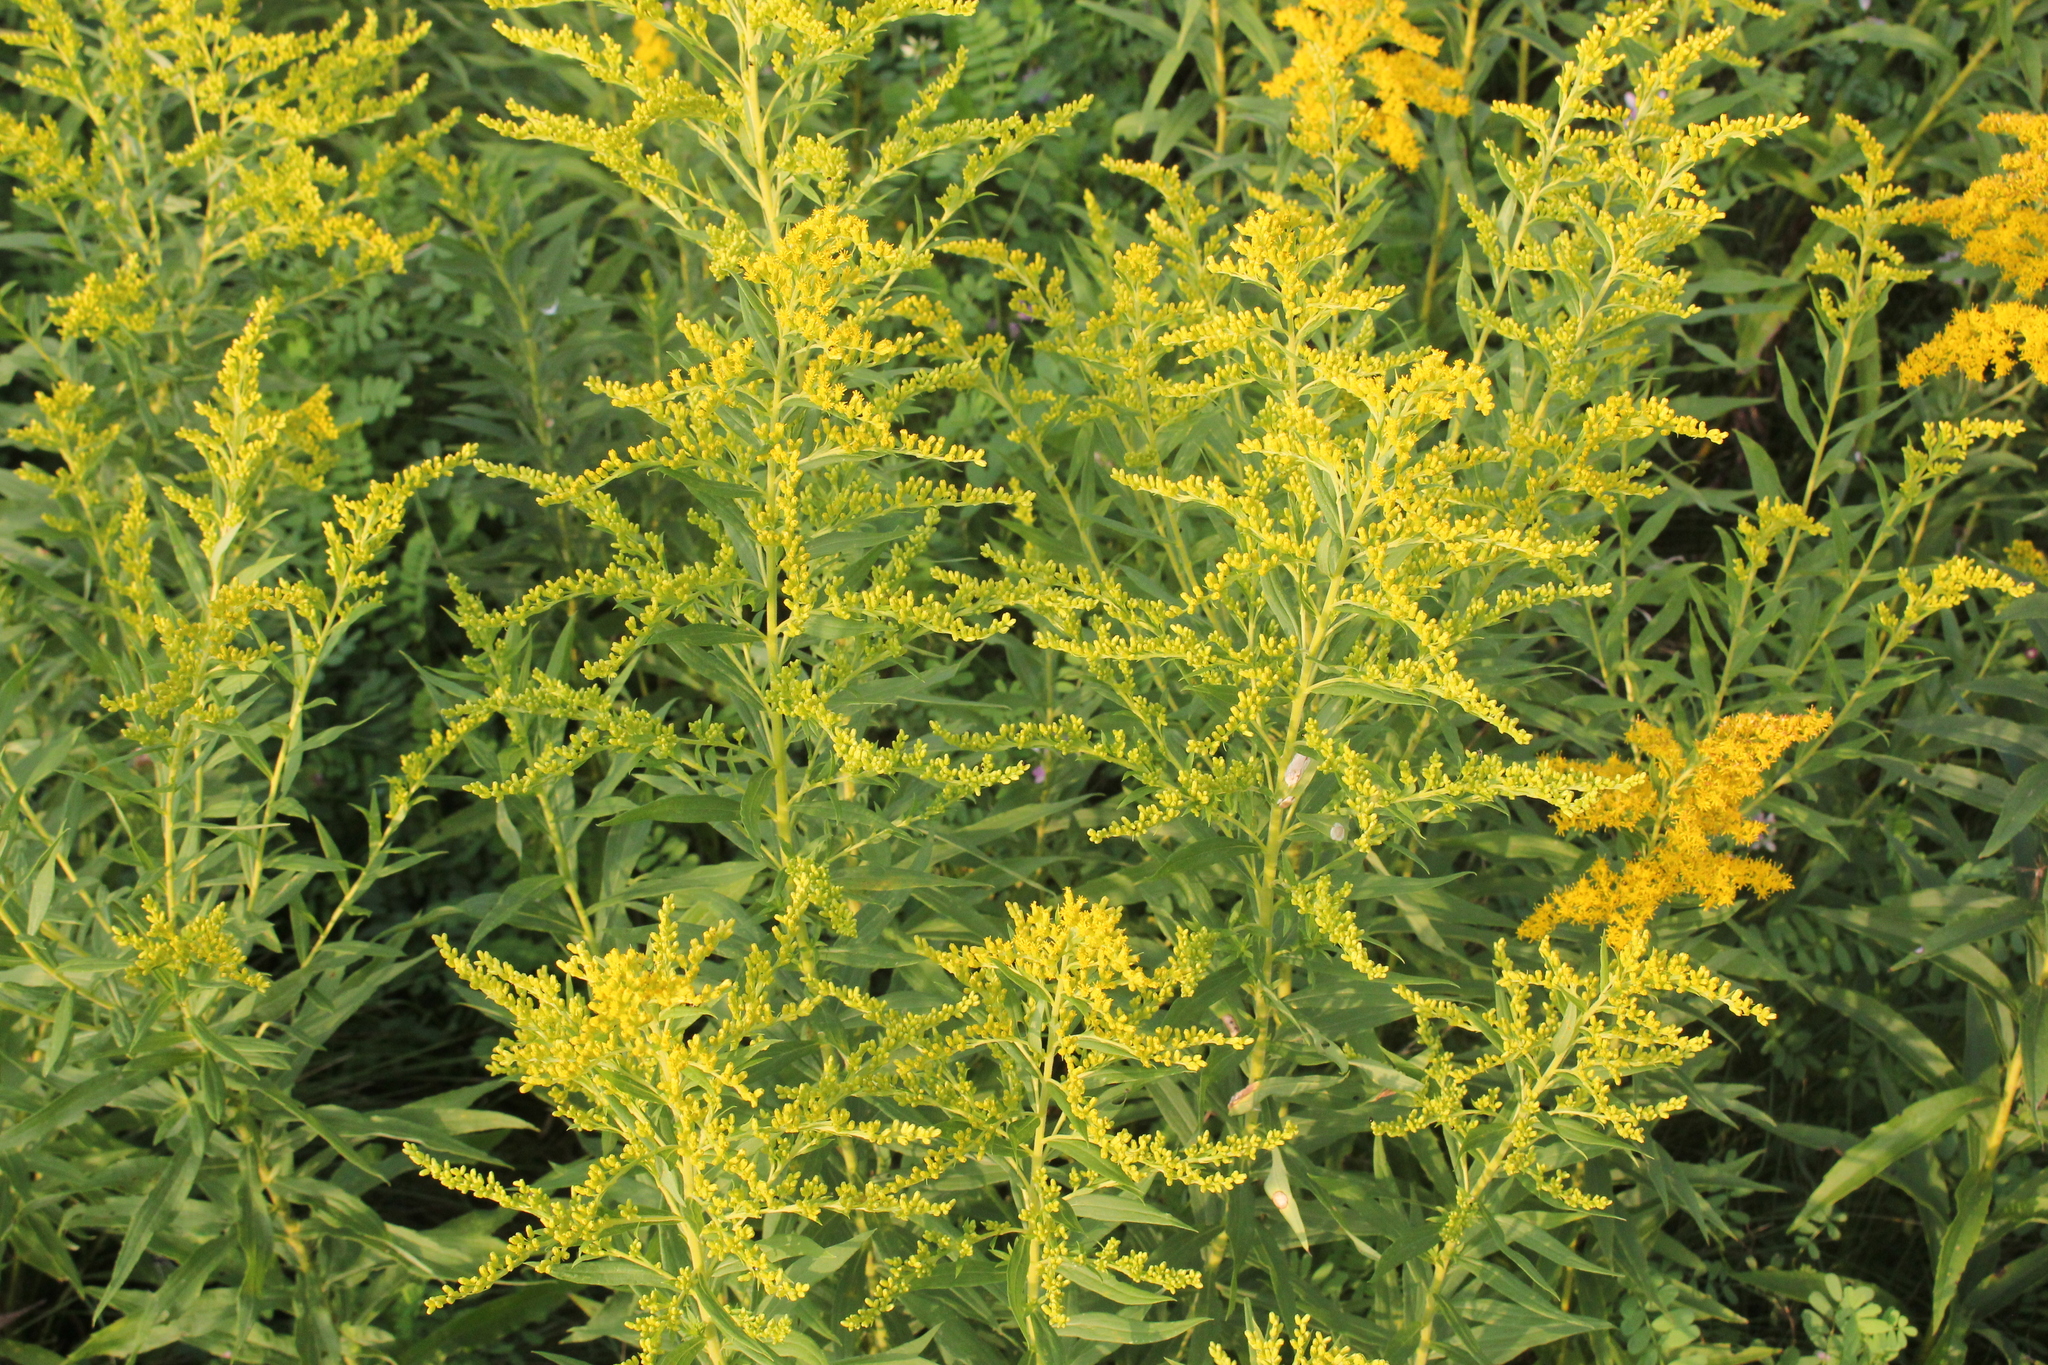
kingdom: Plantae
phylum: Tracheophyta
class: Magnoliopsida
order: Asterales
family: Asteraceae
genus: Solidago
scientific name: Solidago altissima
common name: Late goldenrod
